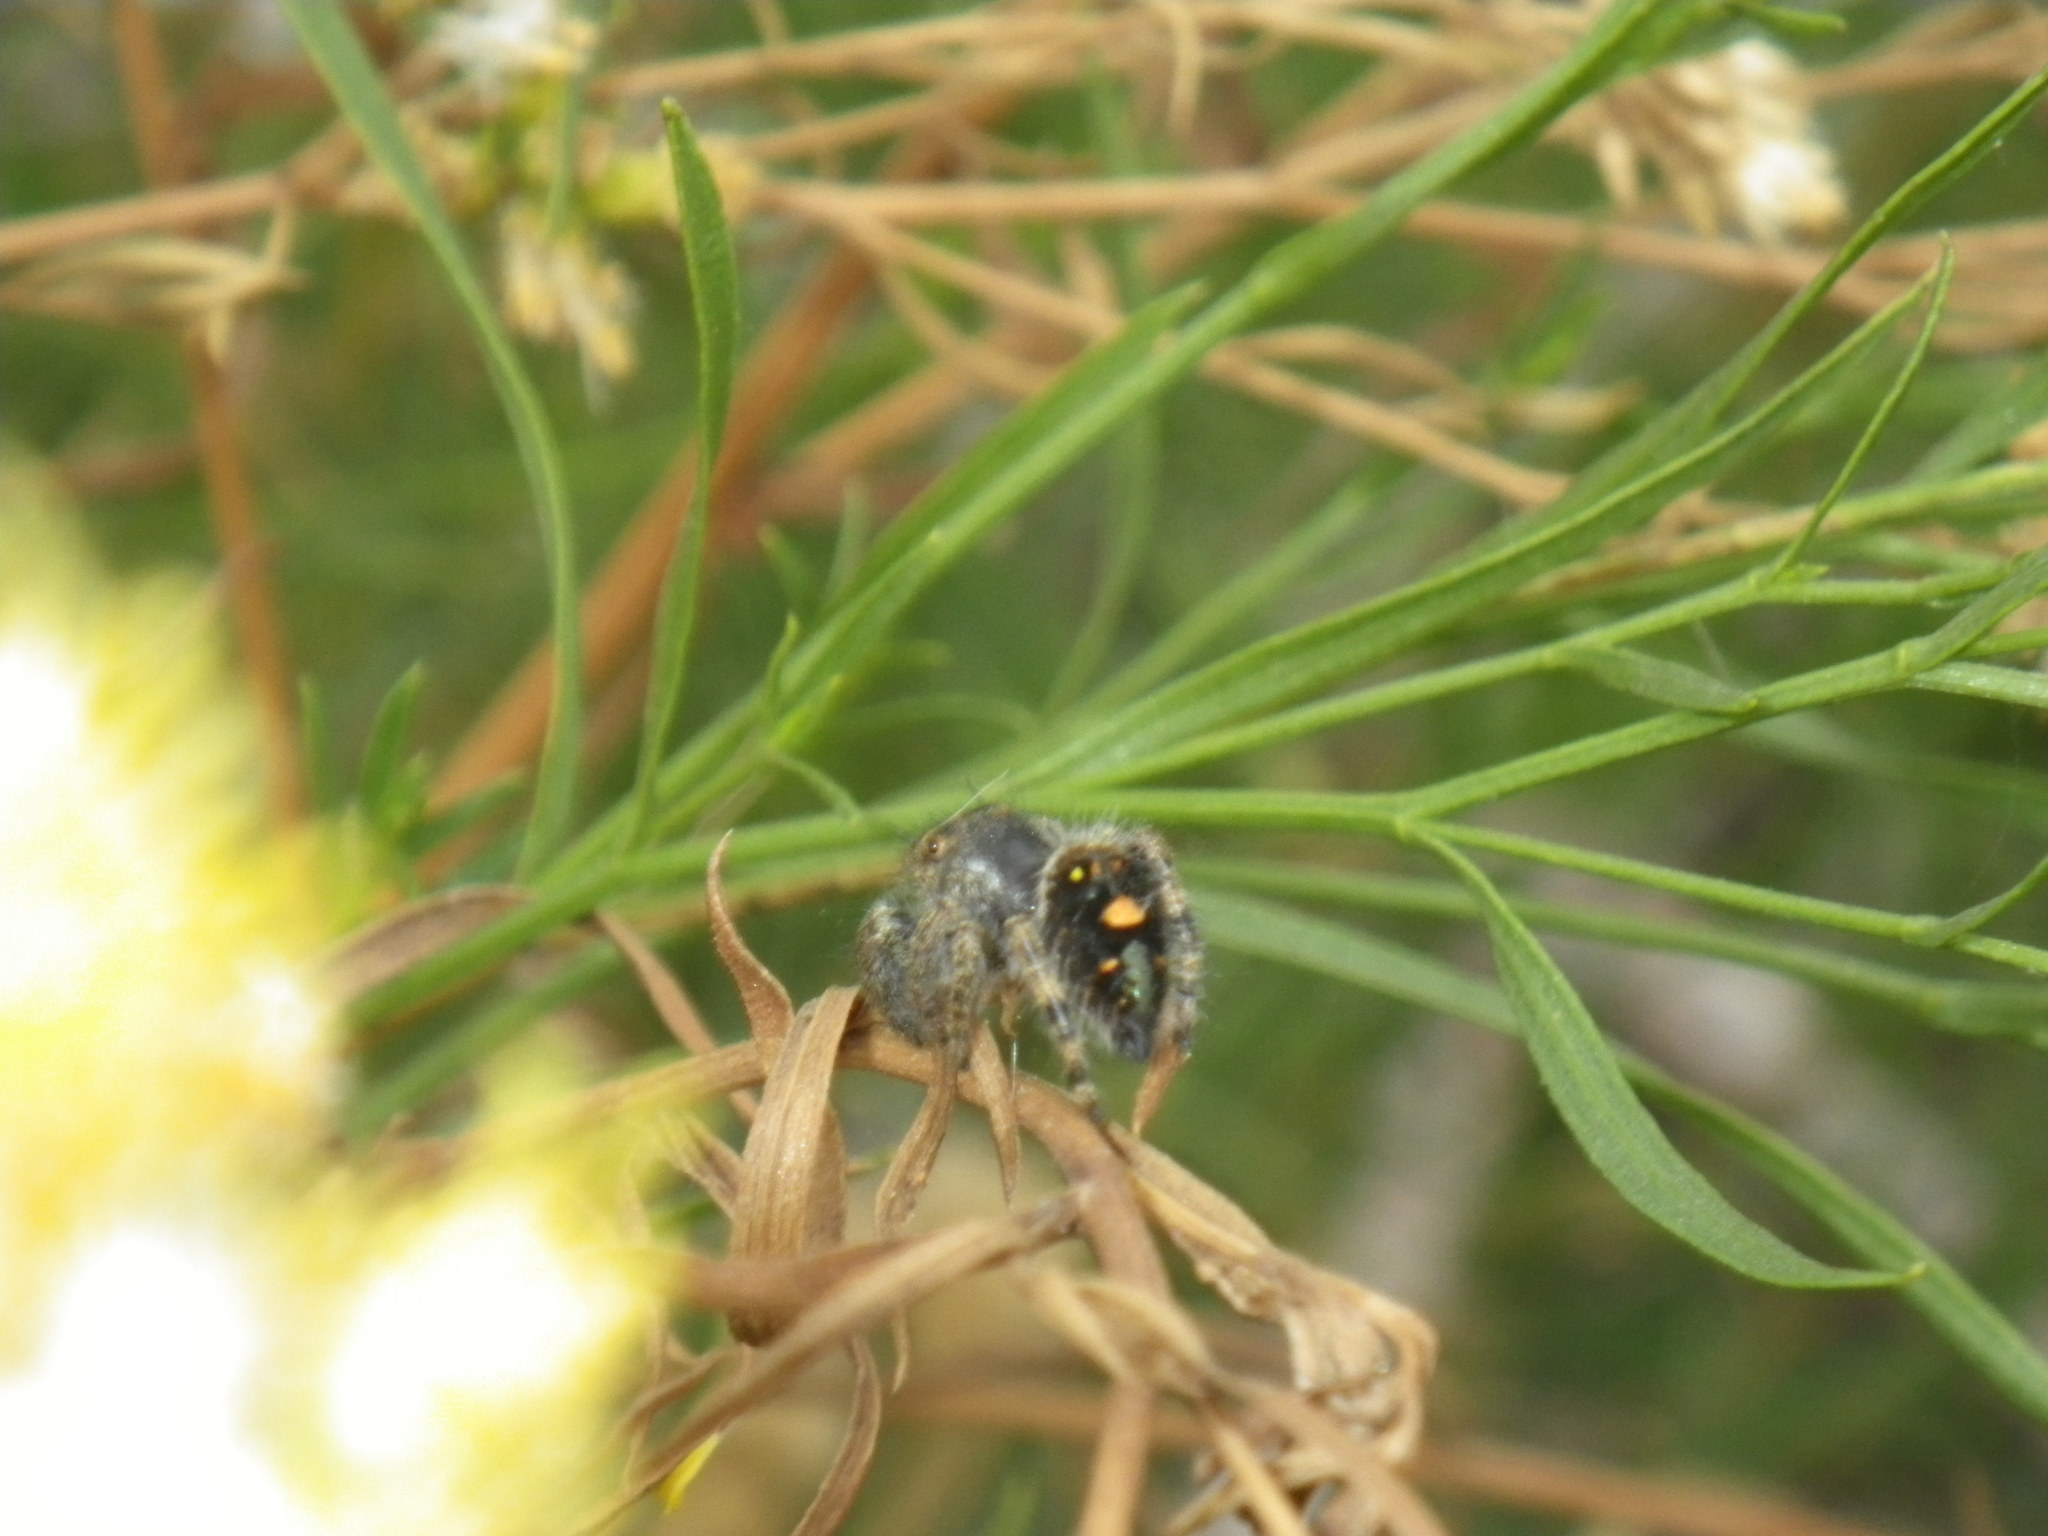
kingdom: Animalia
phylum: Arthropoda
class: Arachnida
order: Araneae
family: Salticidae
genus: Phidippus
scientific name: Phidippus audax
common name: Bold jumper
